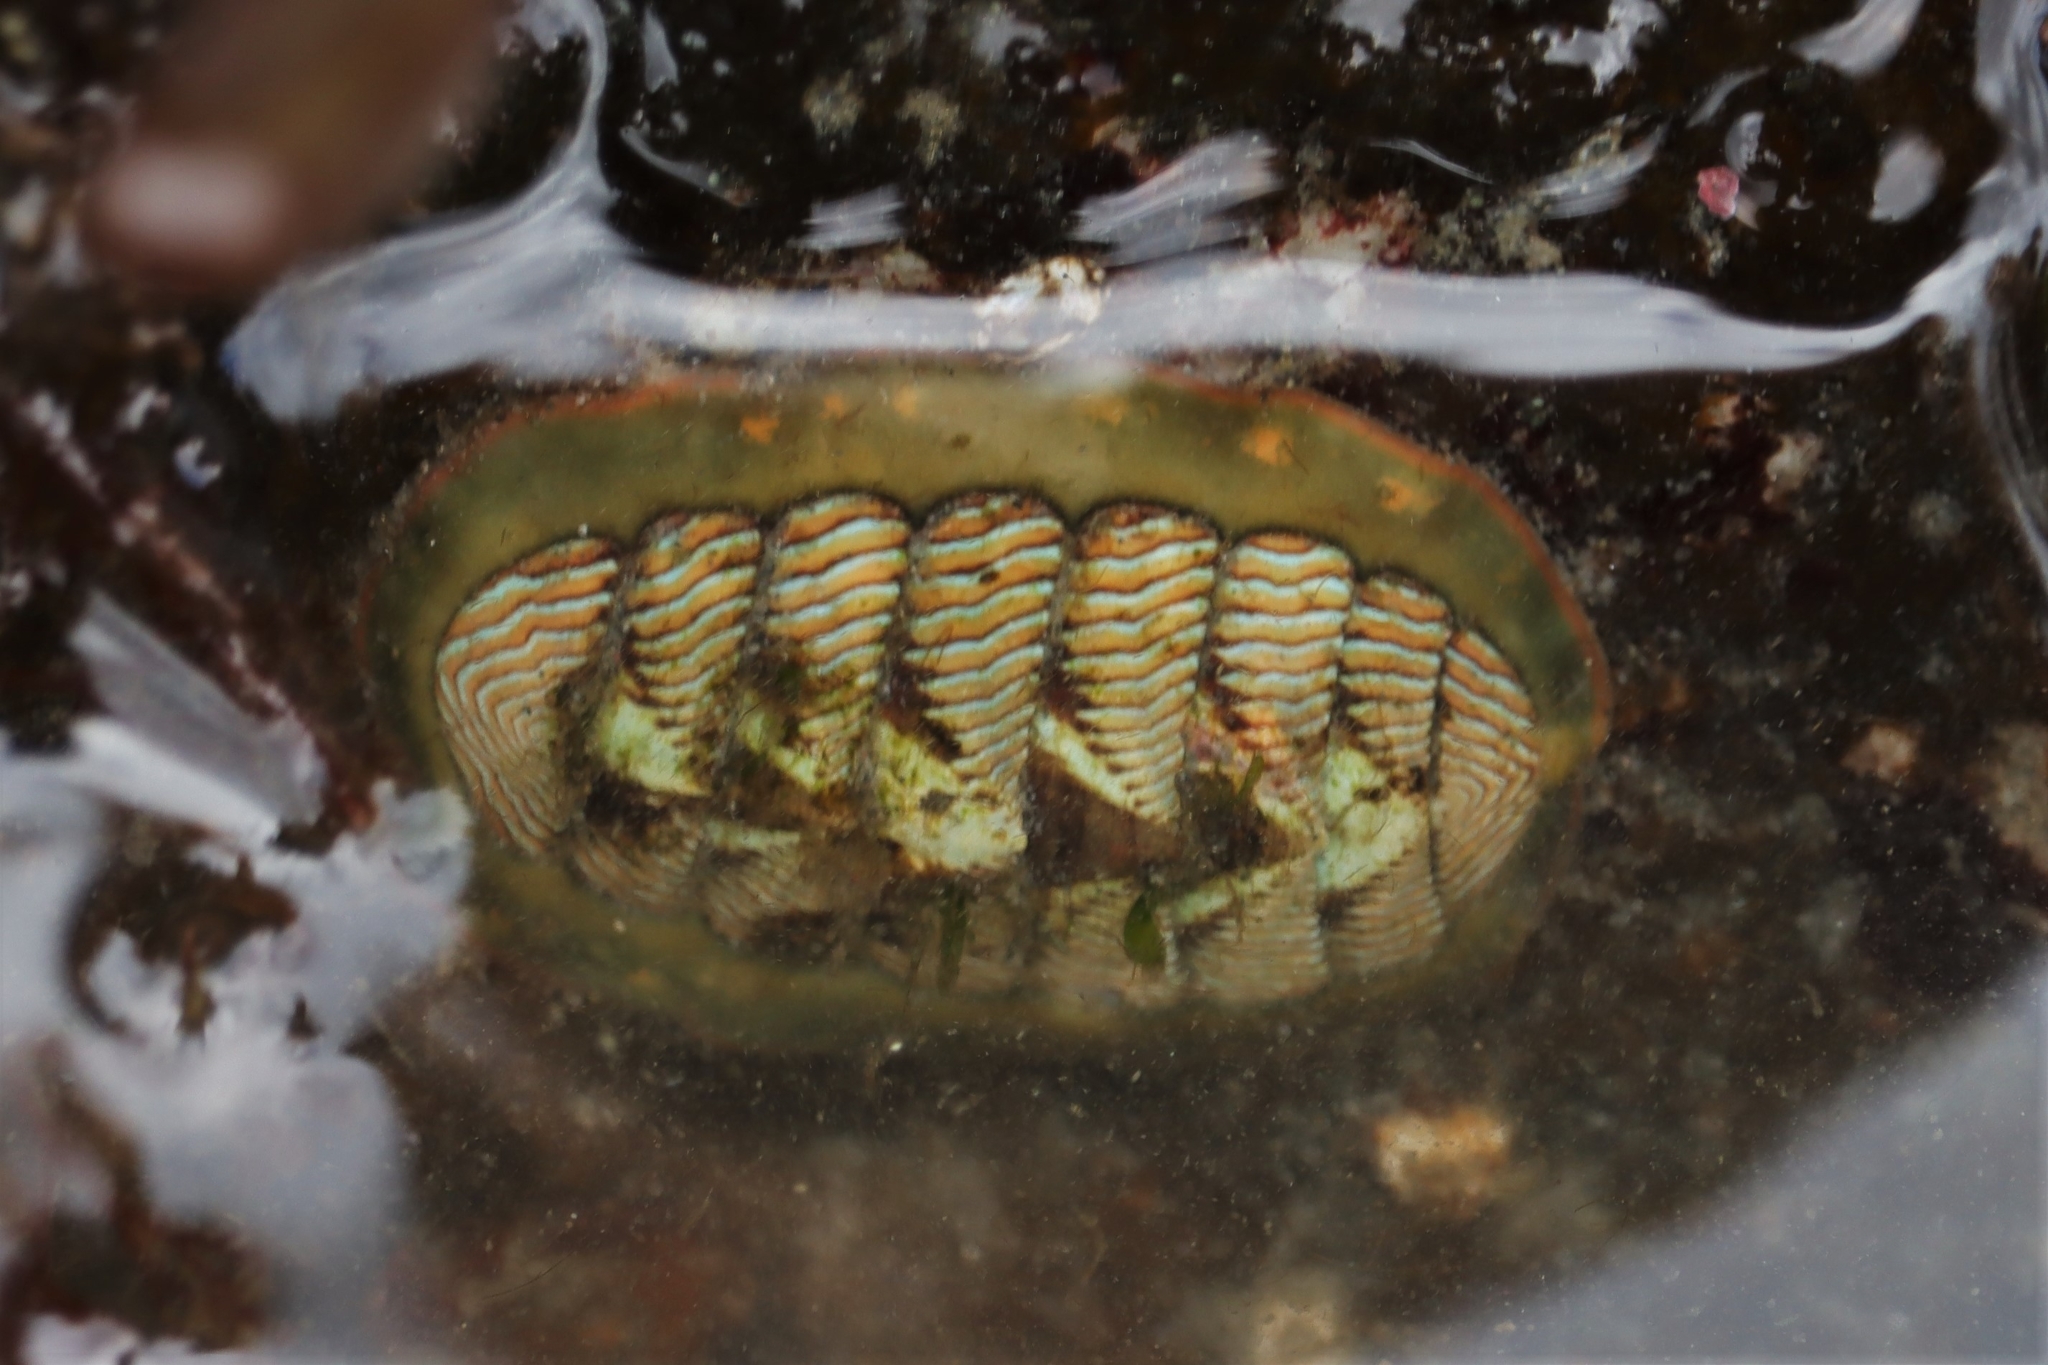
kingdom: Animalia
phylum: Mollusca
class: Polyplacophora
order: Chitonida
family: Tonicellidae
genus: Tonicella
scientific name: Tonicella lineata
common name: Lined chiton
